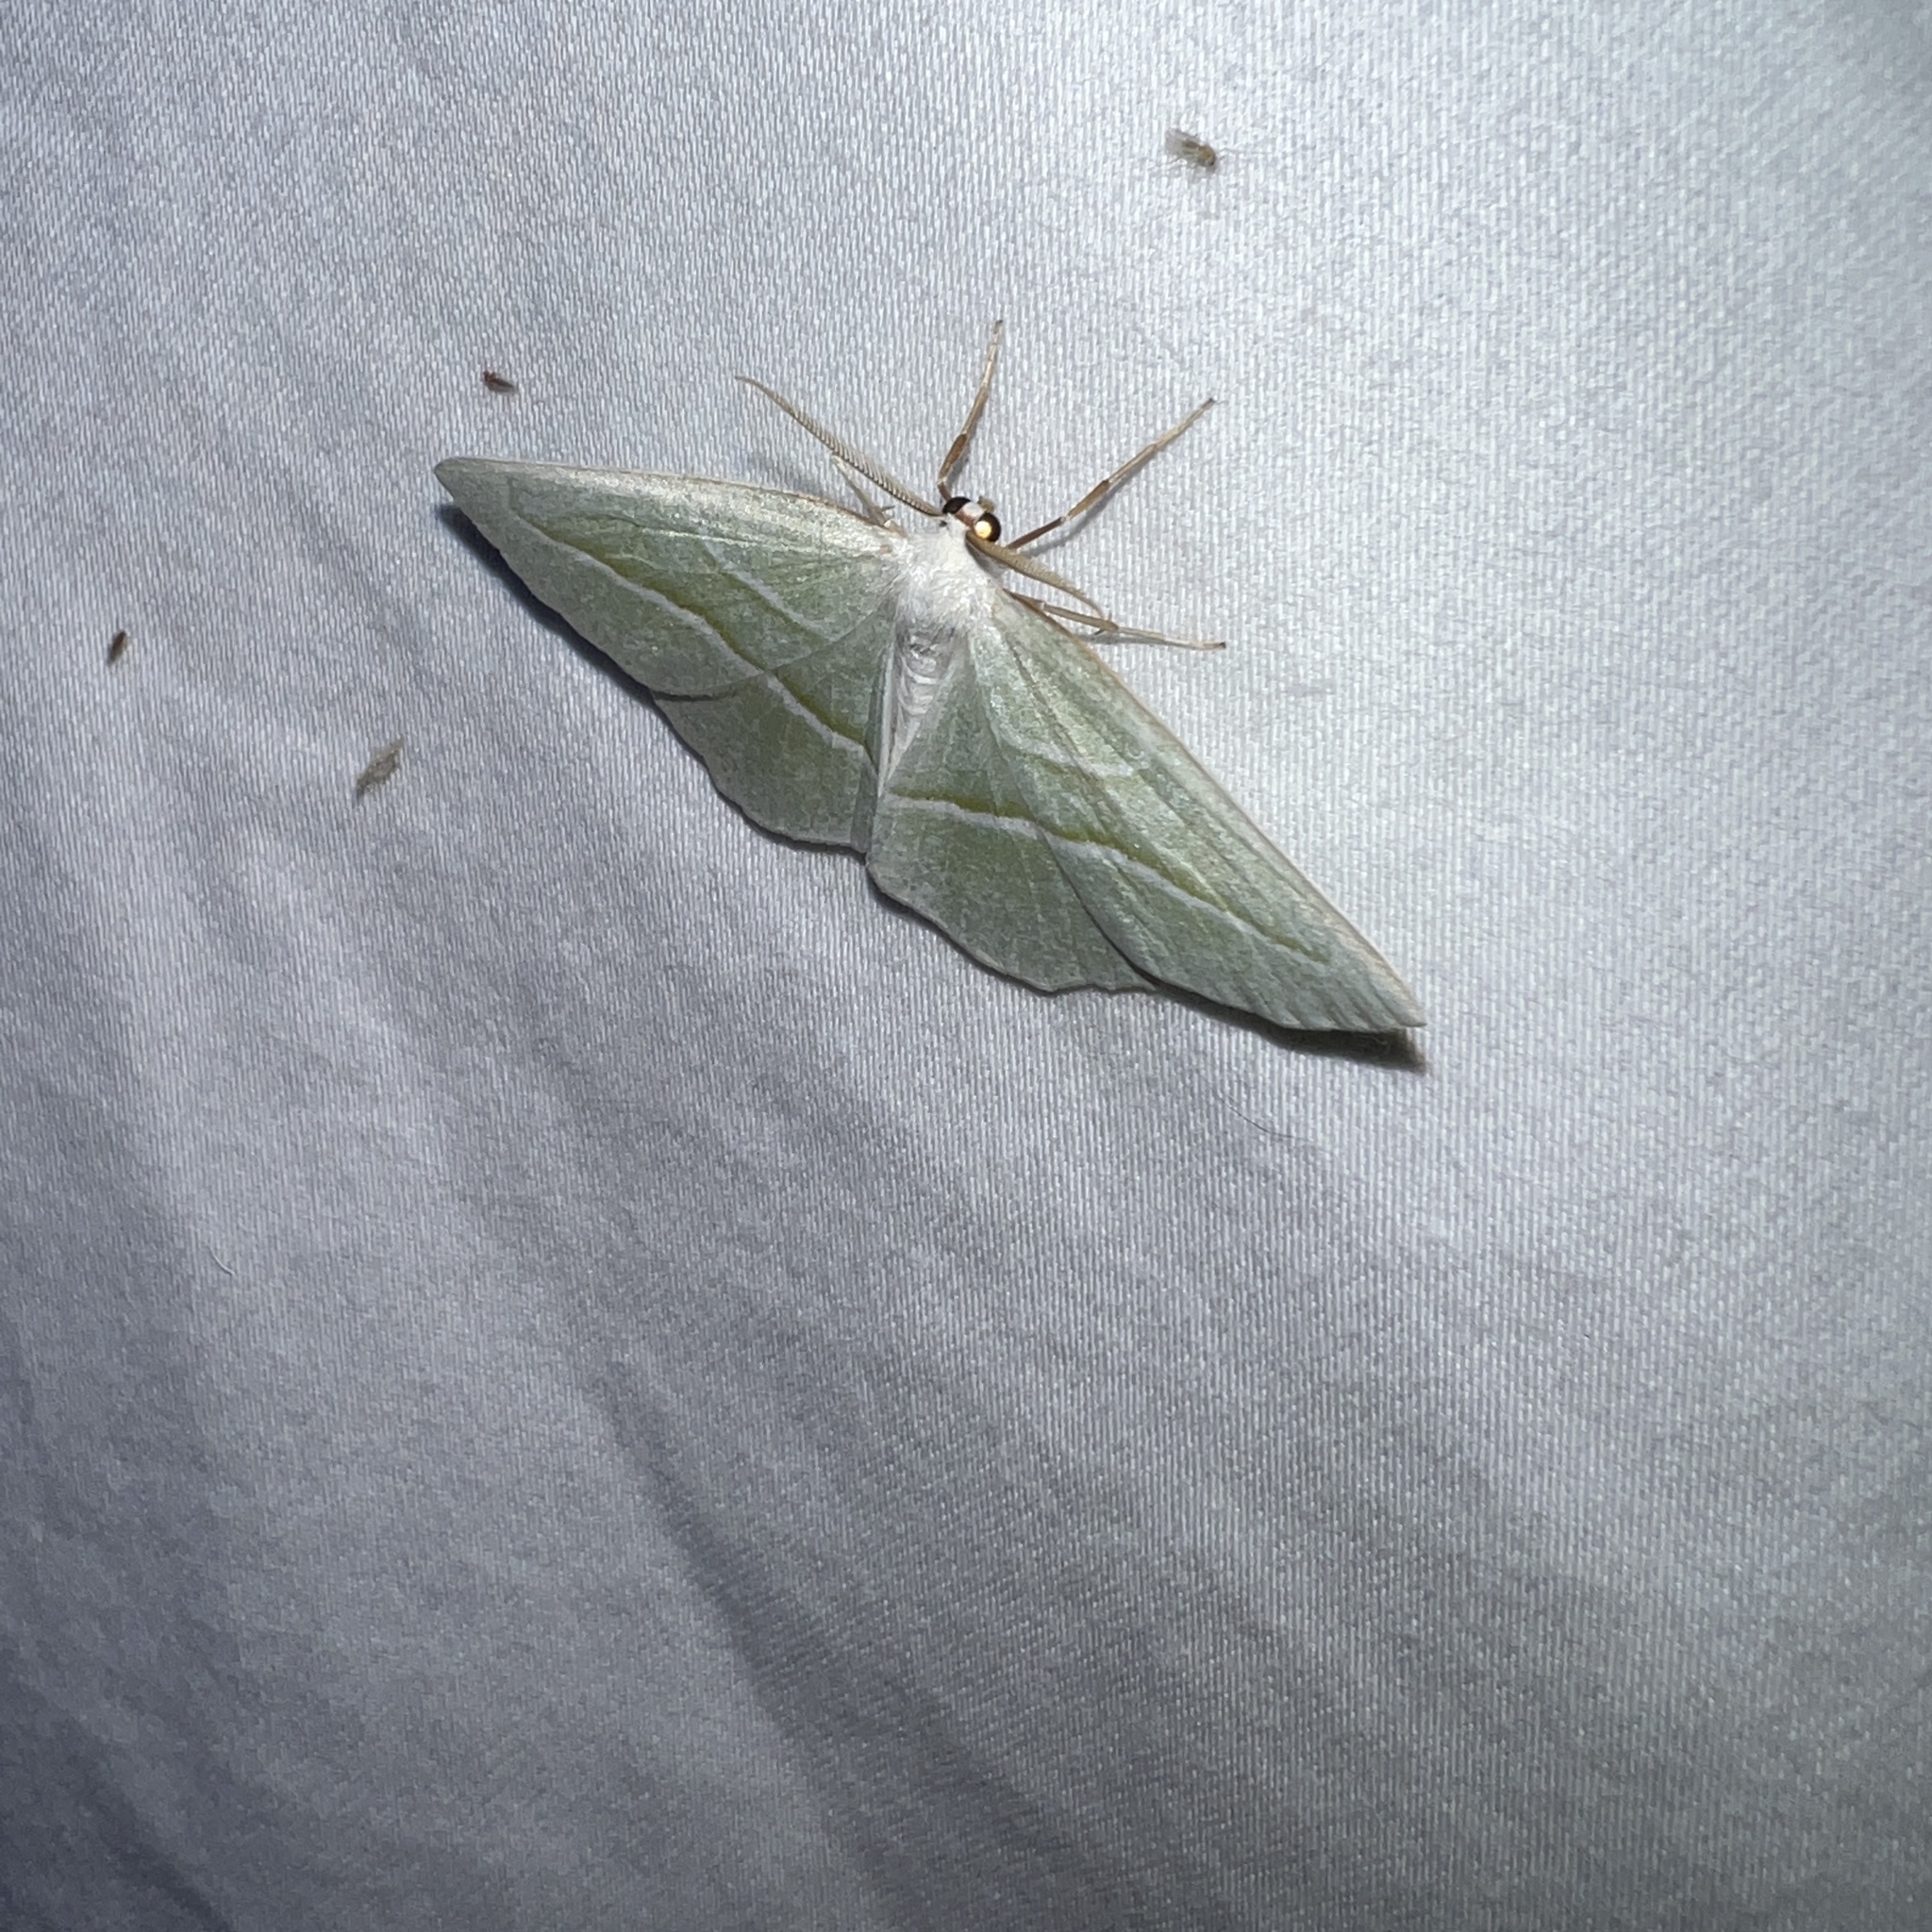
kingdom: Animalia
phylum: Arthropoda
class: Insecta
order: Lepidoptera
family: Geometridae
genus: Campaea
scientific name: Campaea perlata
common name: Fringed looper
